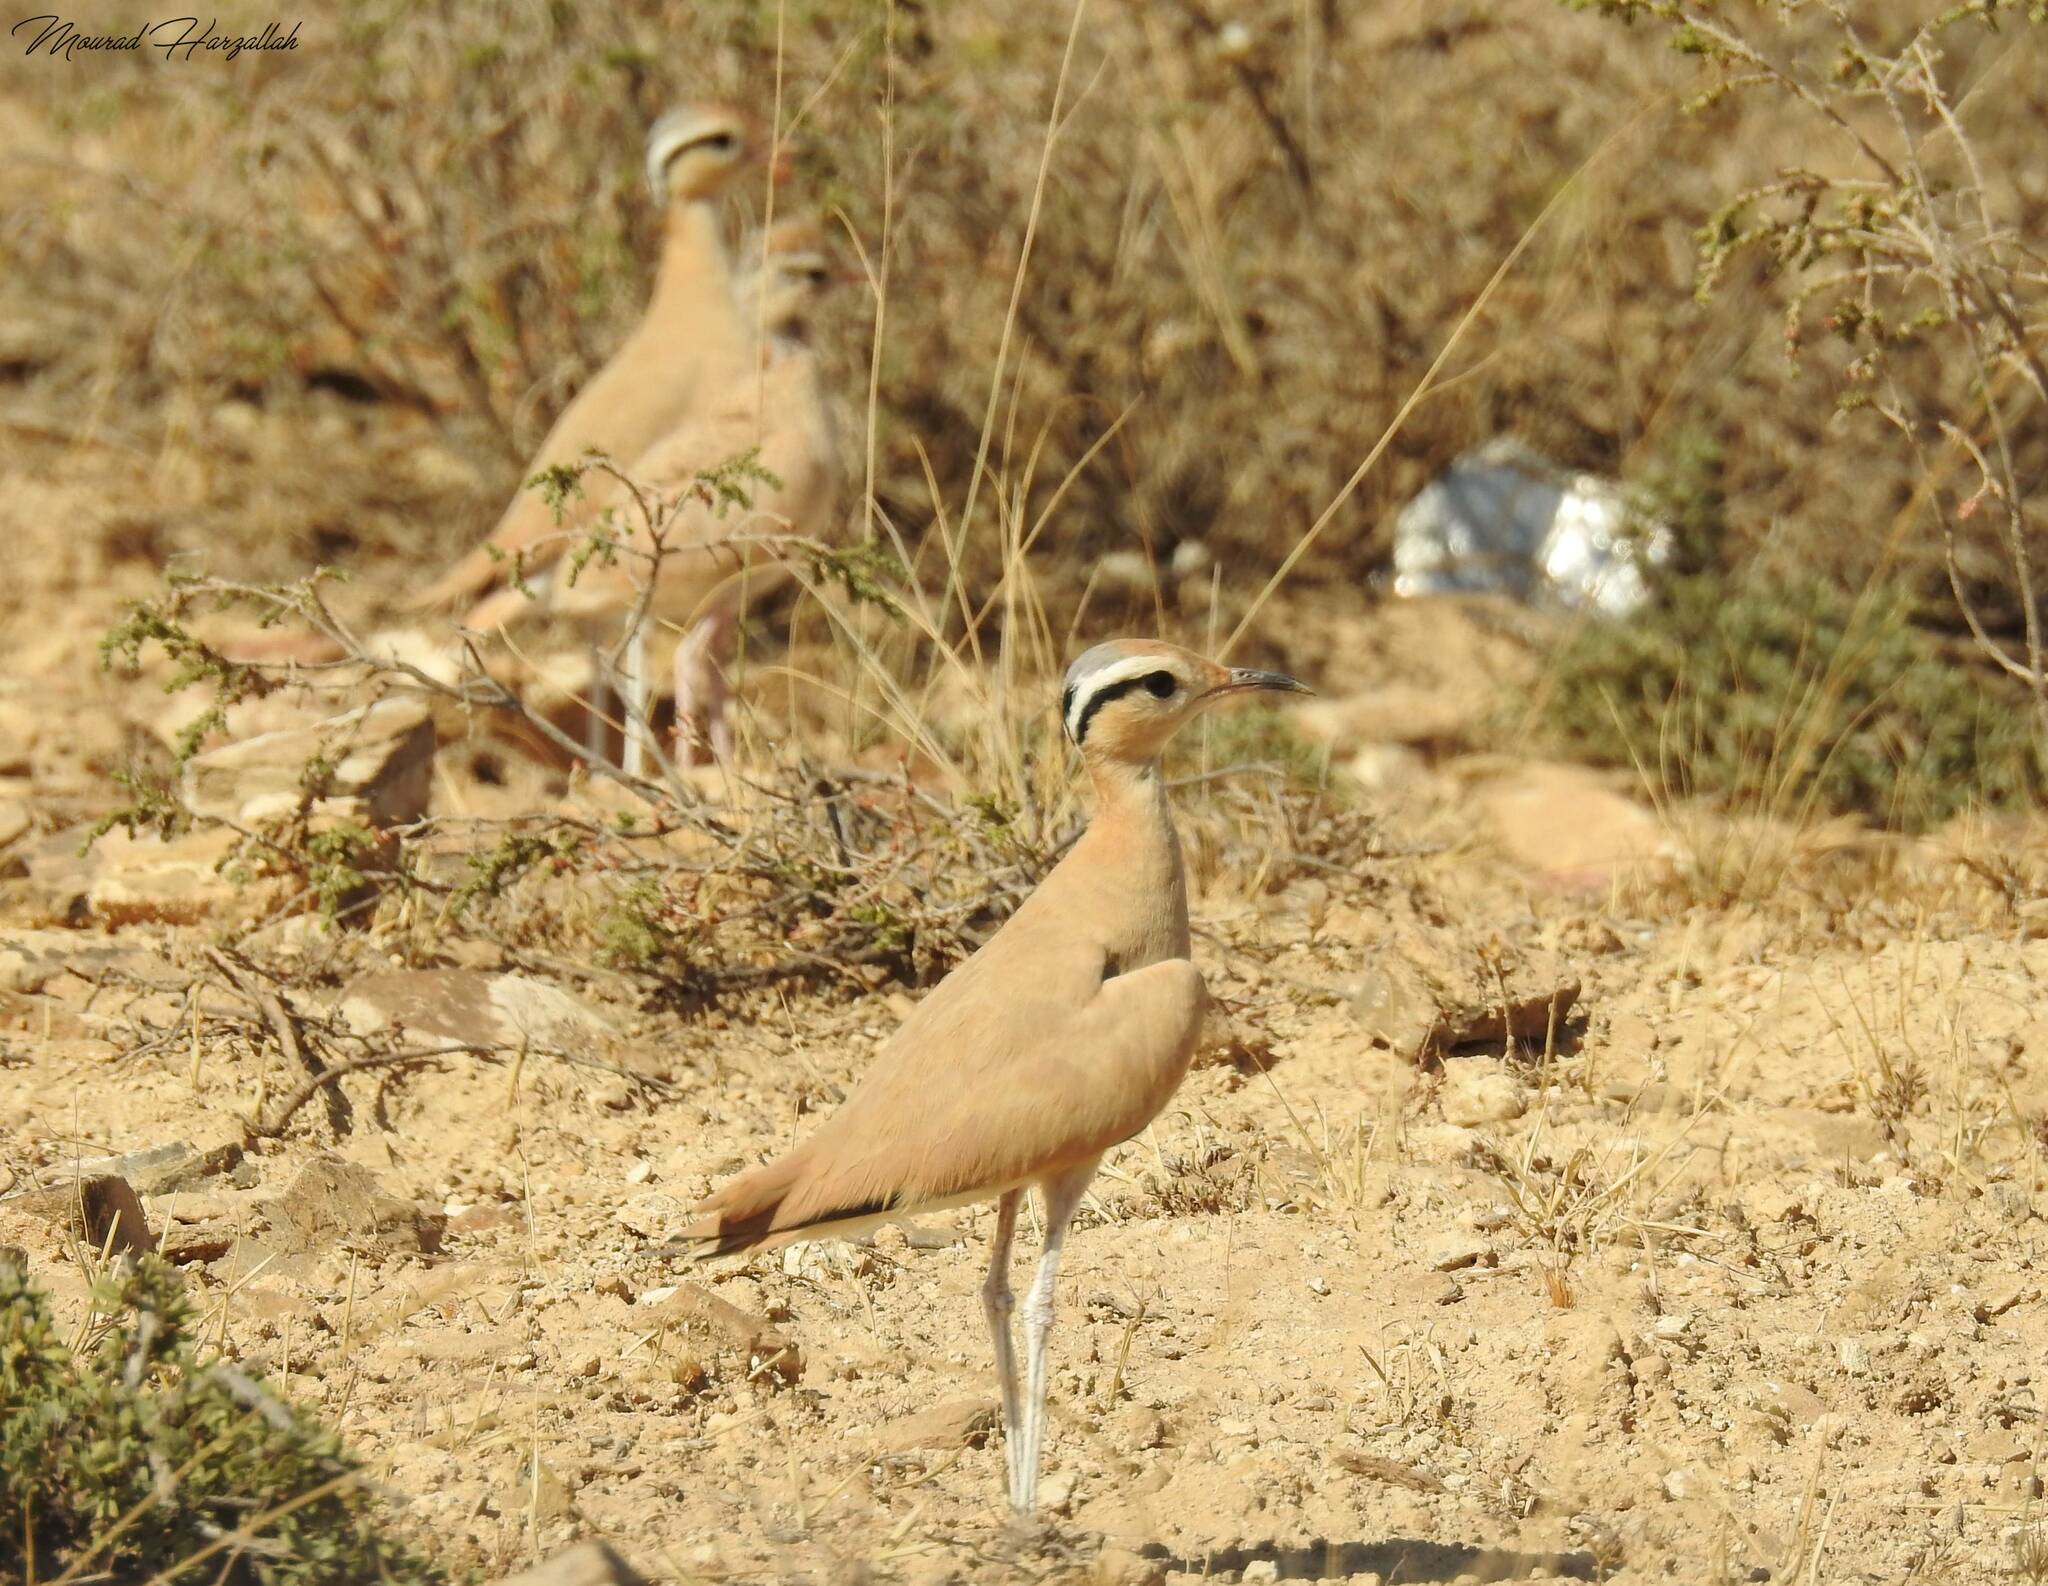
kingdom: Animalia
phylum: Chordata
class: Aves
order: Charadriiformes
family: Glareolidae
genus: Cursorius
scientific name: Cursorius cursor
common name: Cream-colored courser
